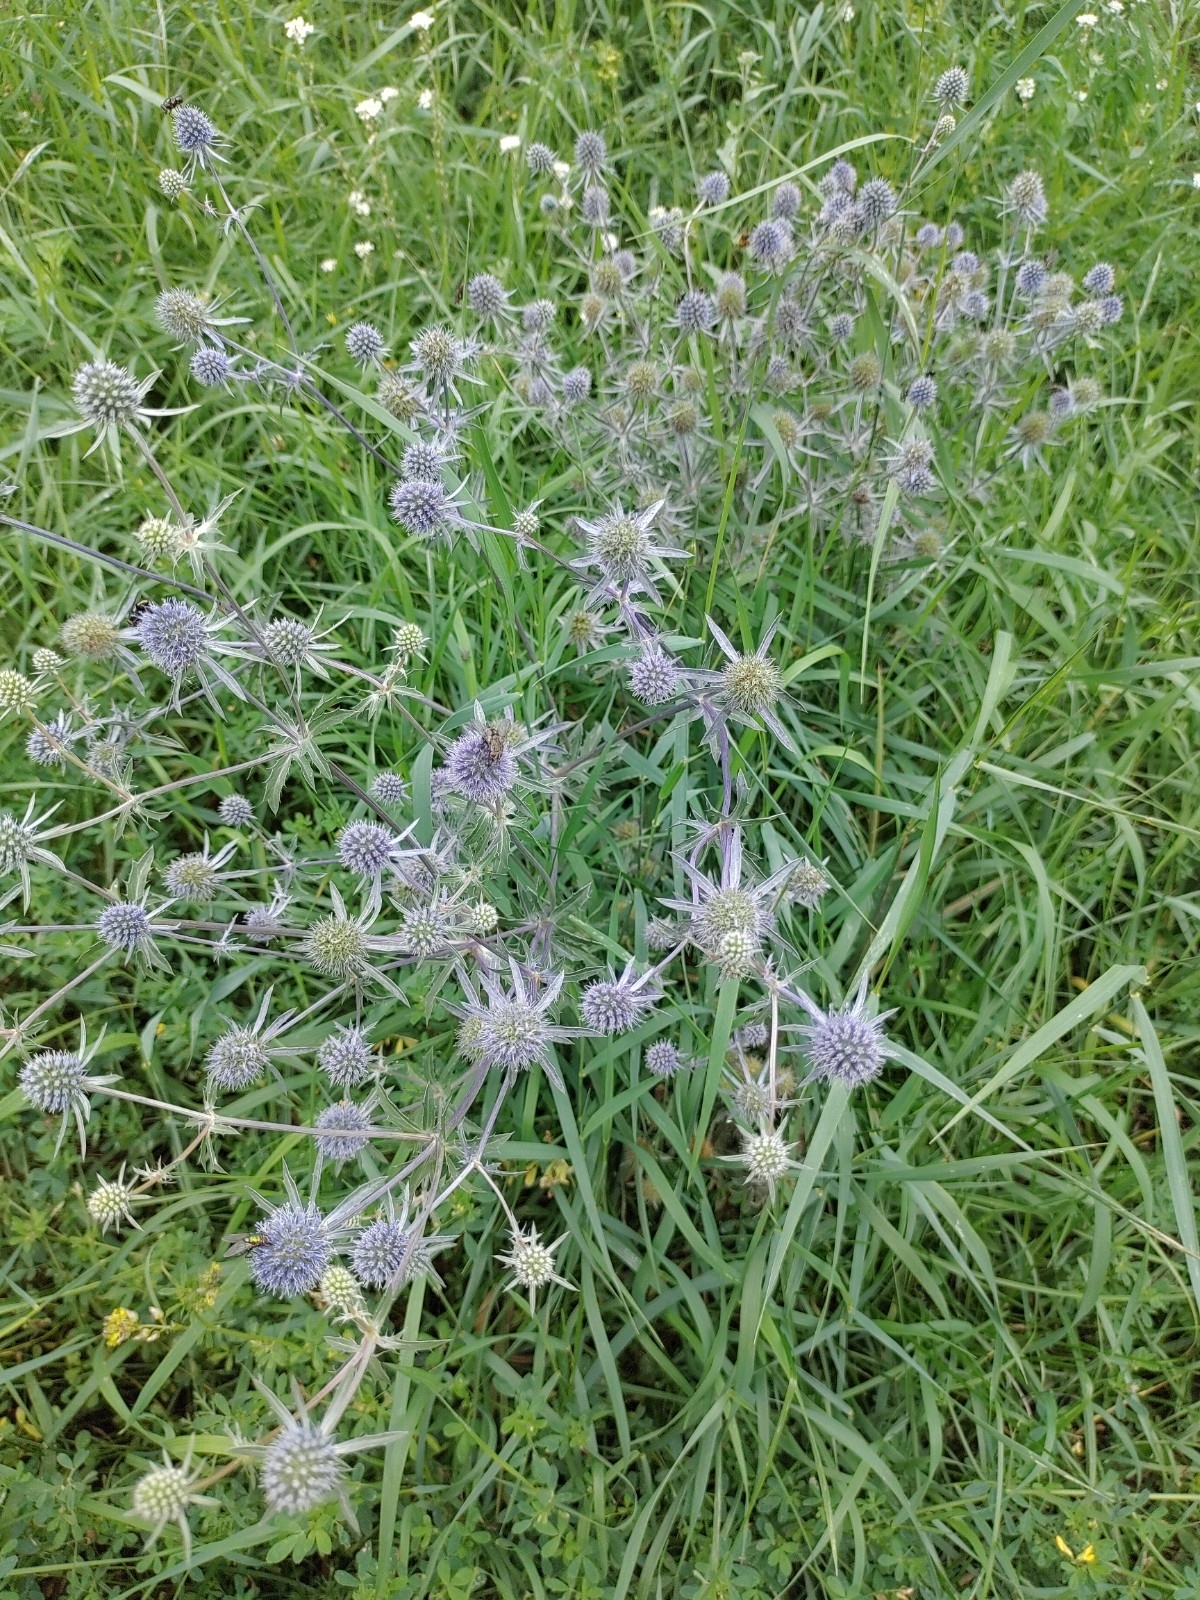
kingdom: Plantae
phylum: Tracheophyta
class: Magnoliopsida
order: Apiales
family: Apiaceae
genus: Eryngium
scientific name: Eryngium planum
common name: Blue eryngo
